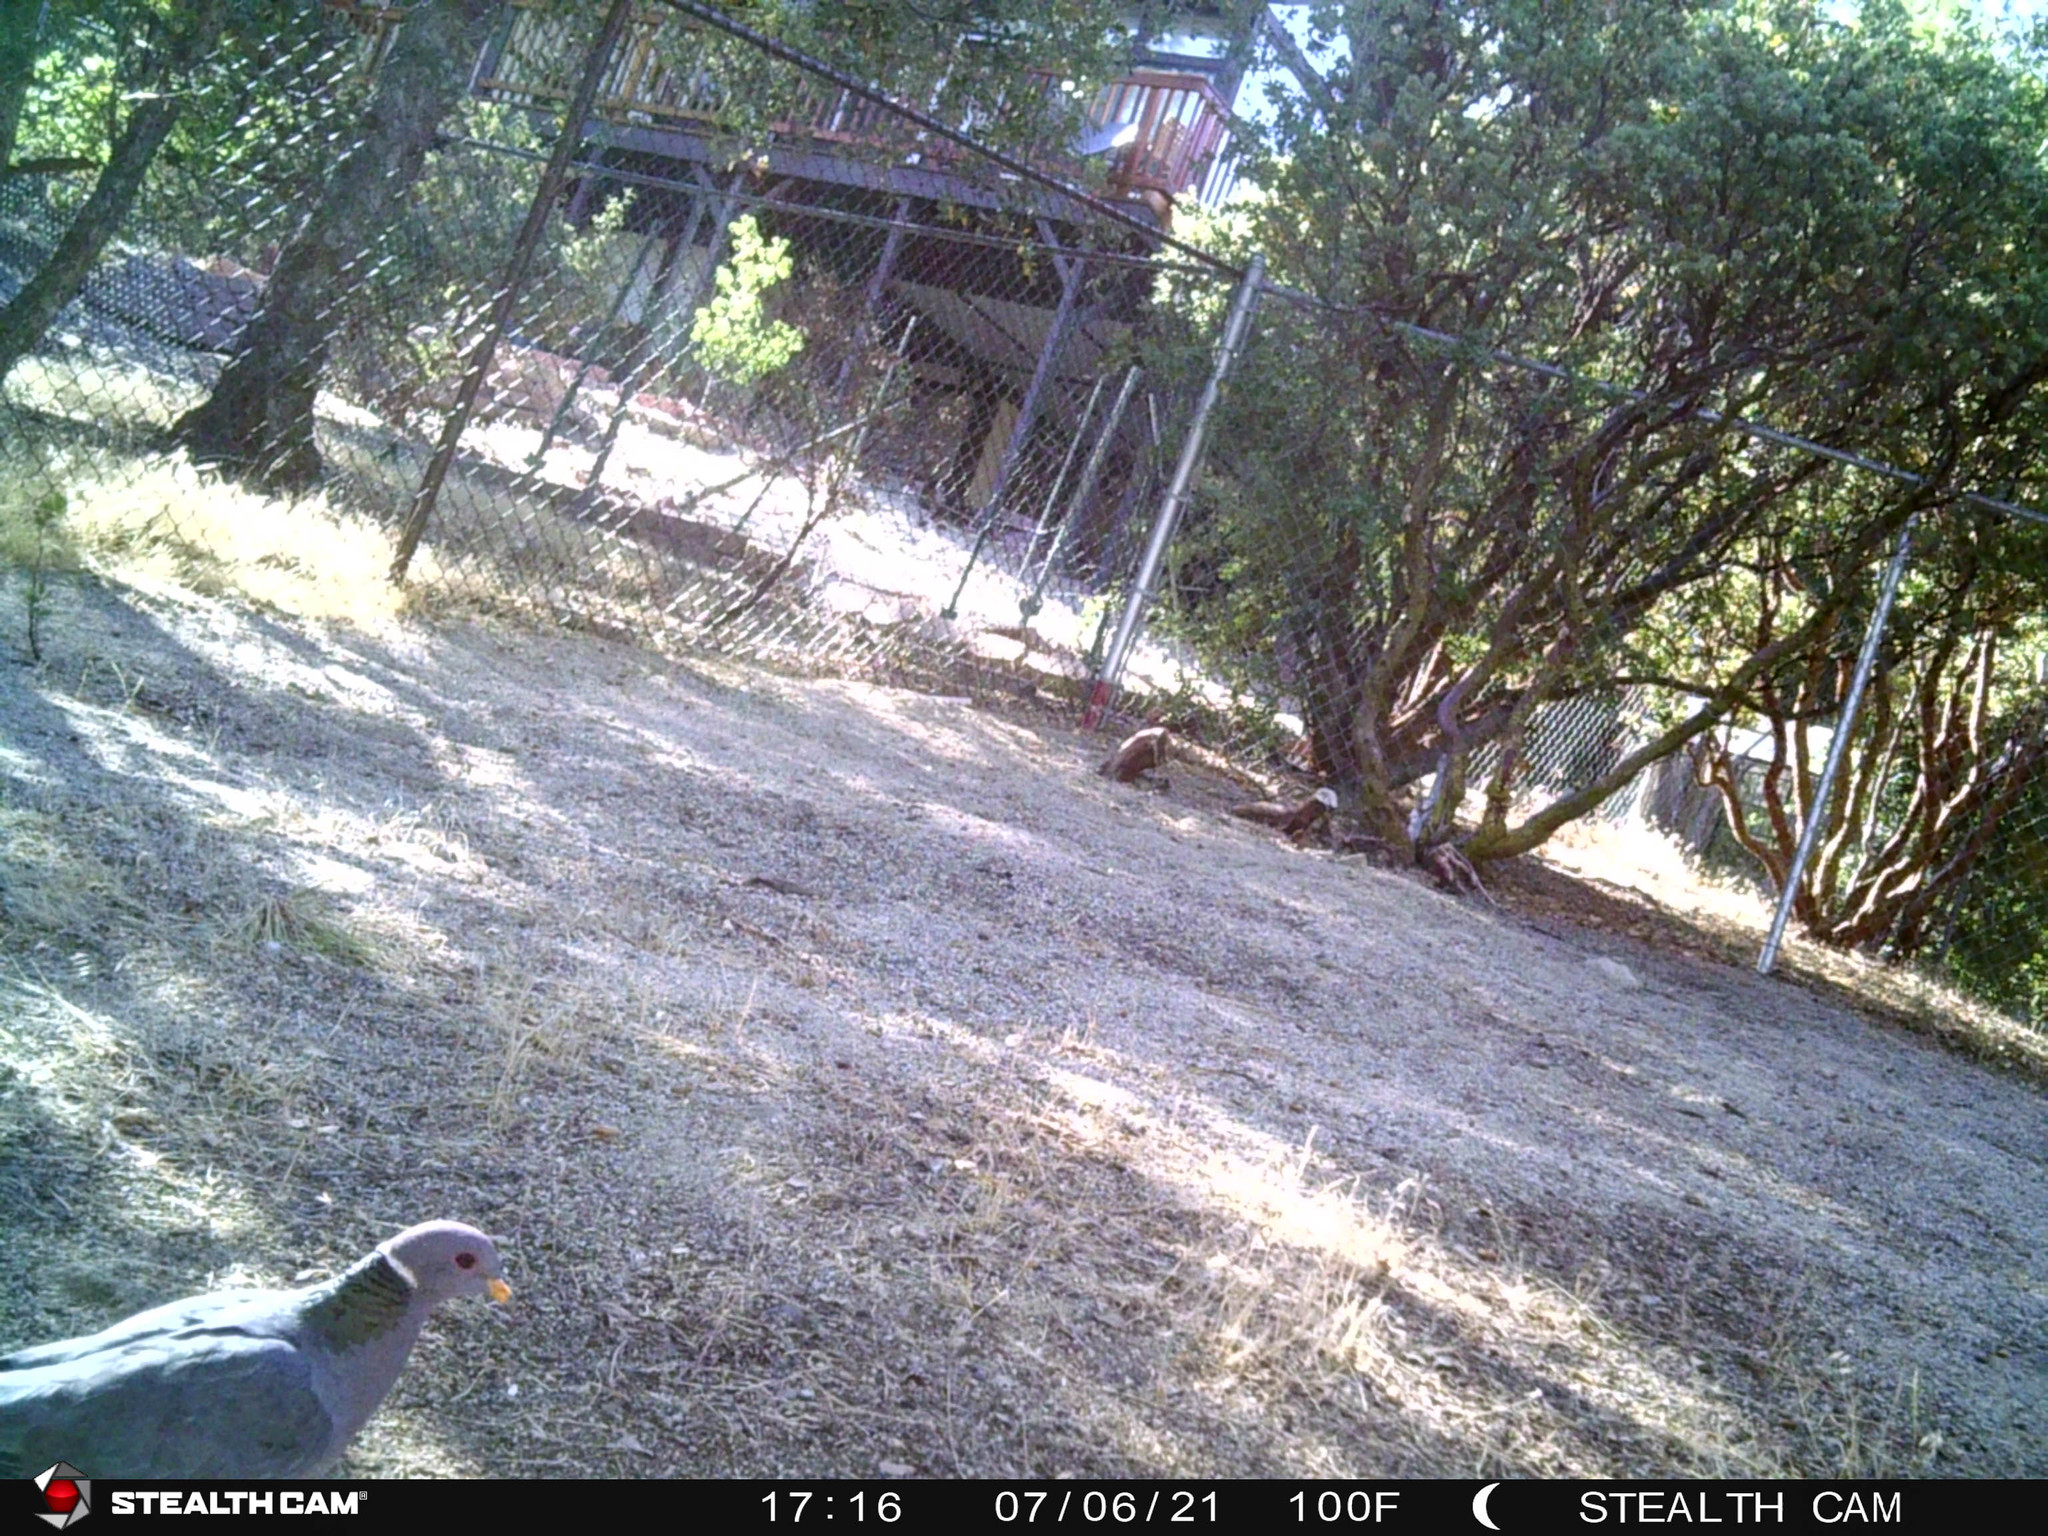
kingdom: Animalia
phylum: Chordata
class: Aves
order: Columbiformes
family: Columbidae
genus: Patagioenas
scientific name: Patagioenas fasciata
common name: Band-tailed pigeon
